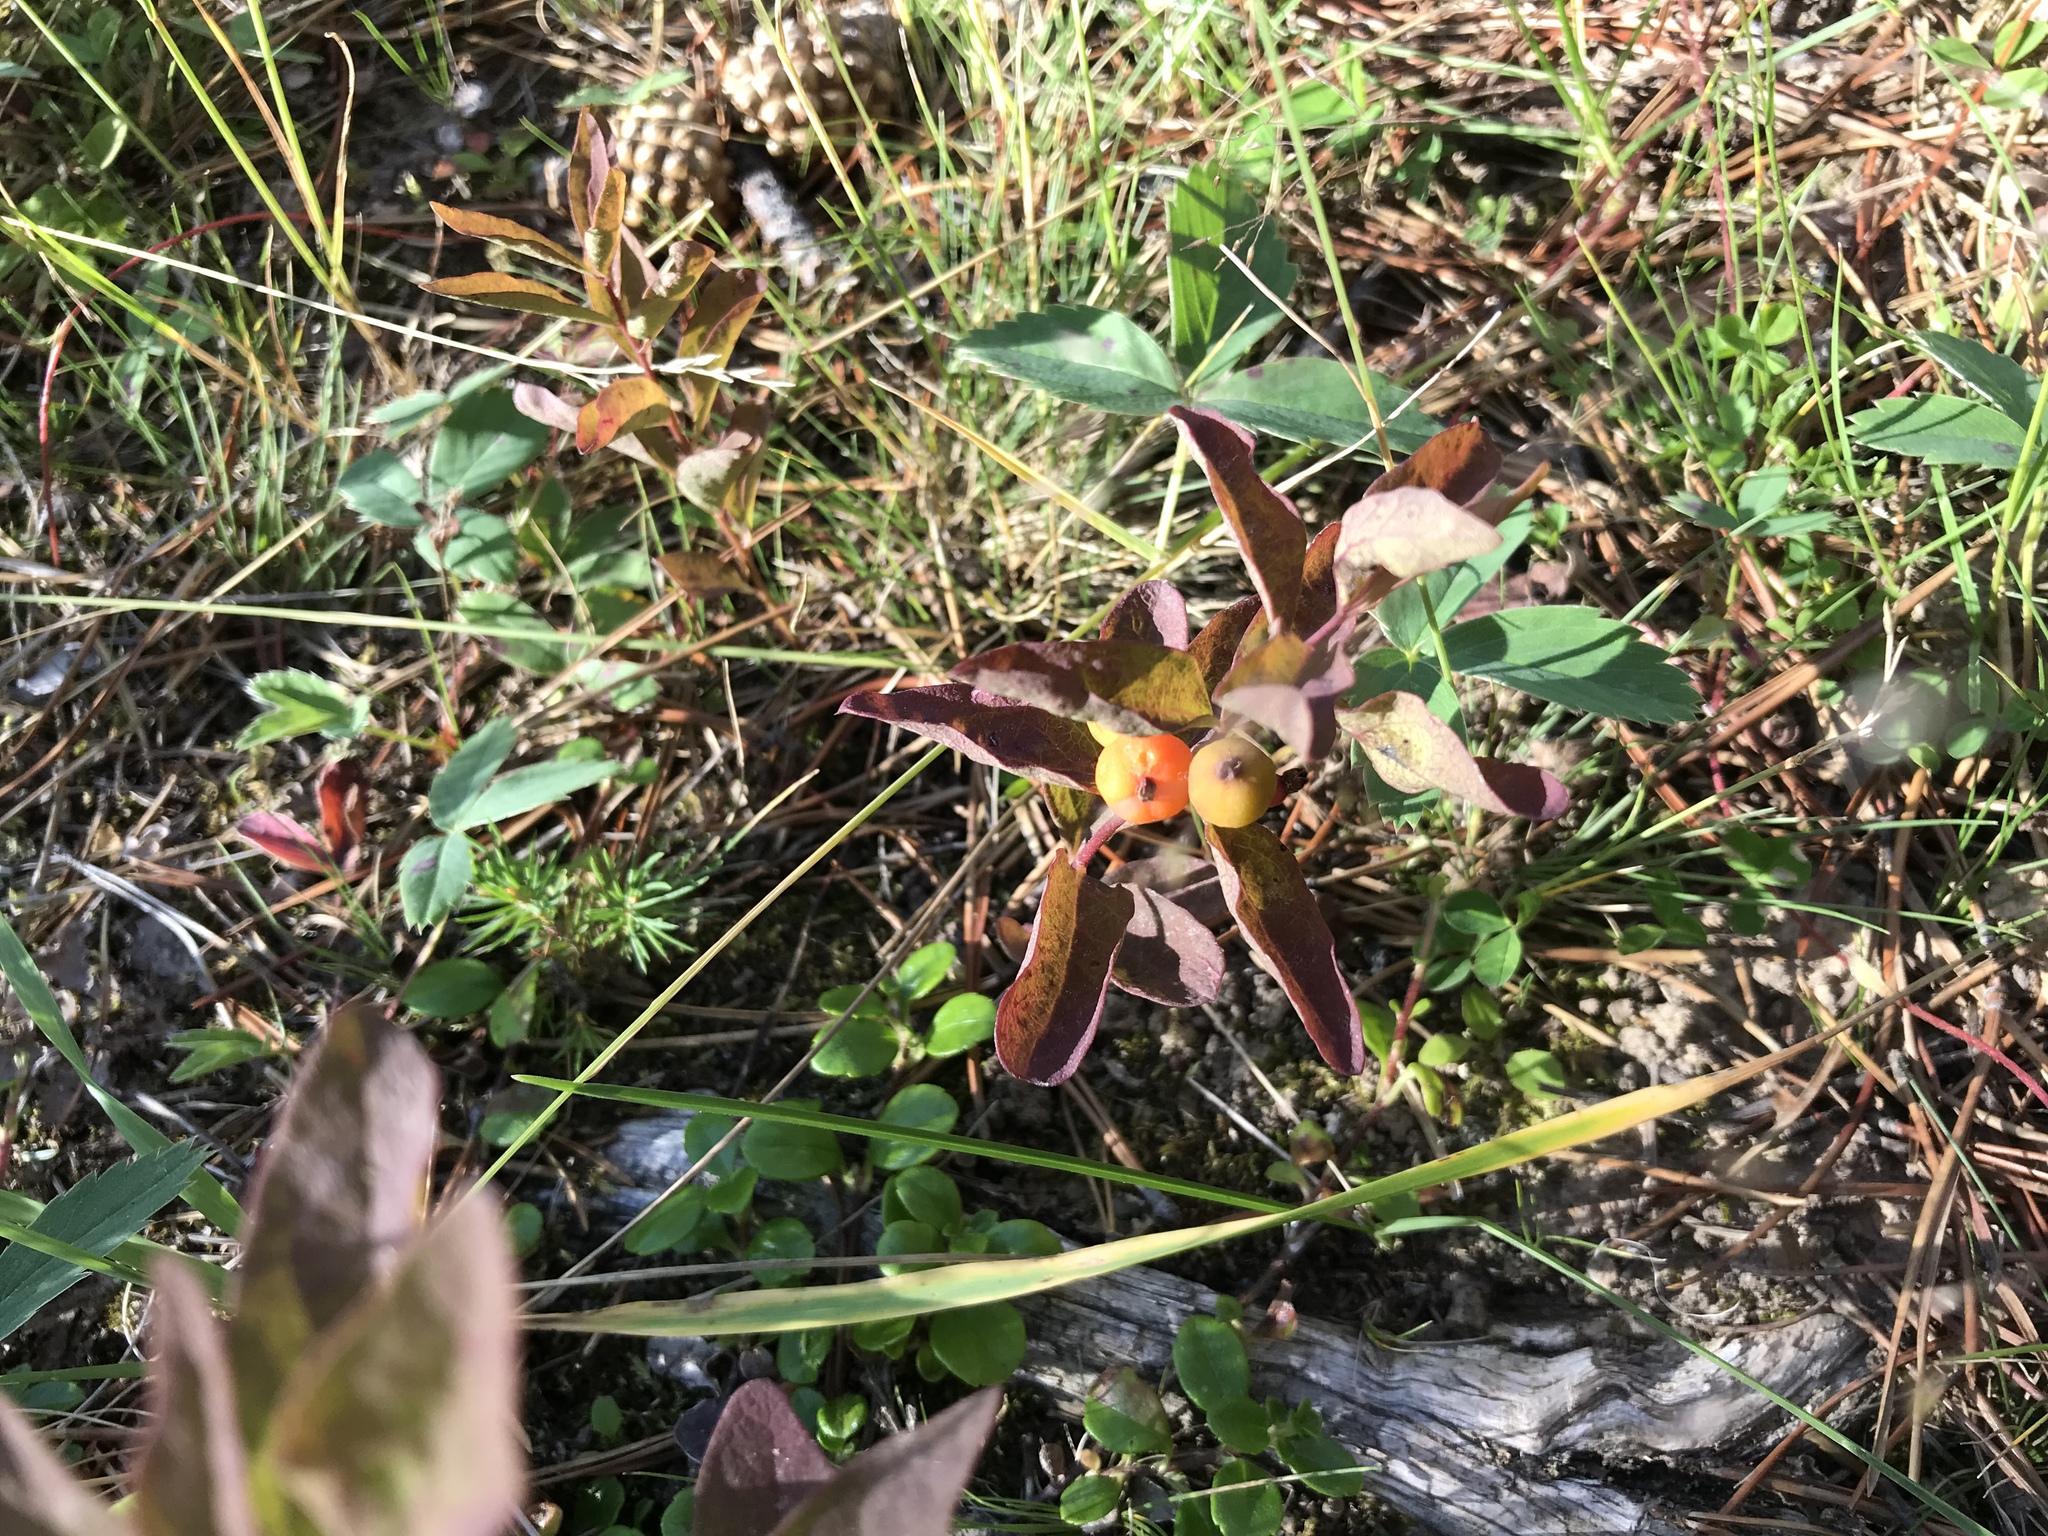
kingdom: Plantae
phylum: Tracheophyta
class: Magnoliopsida
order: Santalales
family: Comandraceae
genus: Geocaulon
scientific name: Geocaulon lividum
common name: Earthberry
